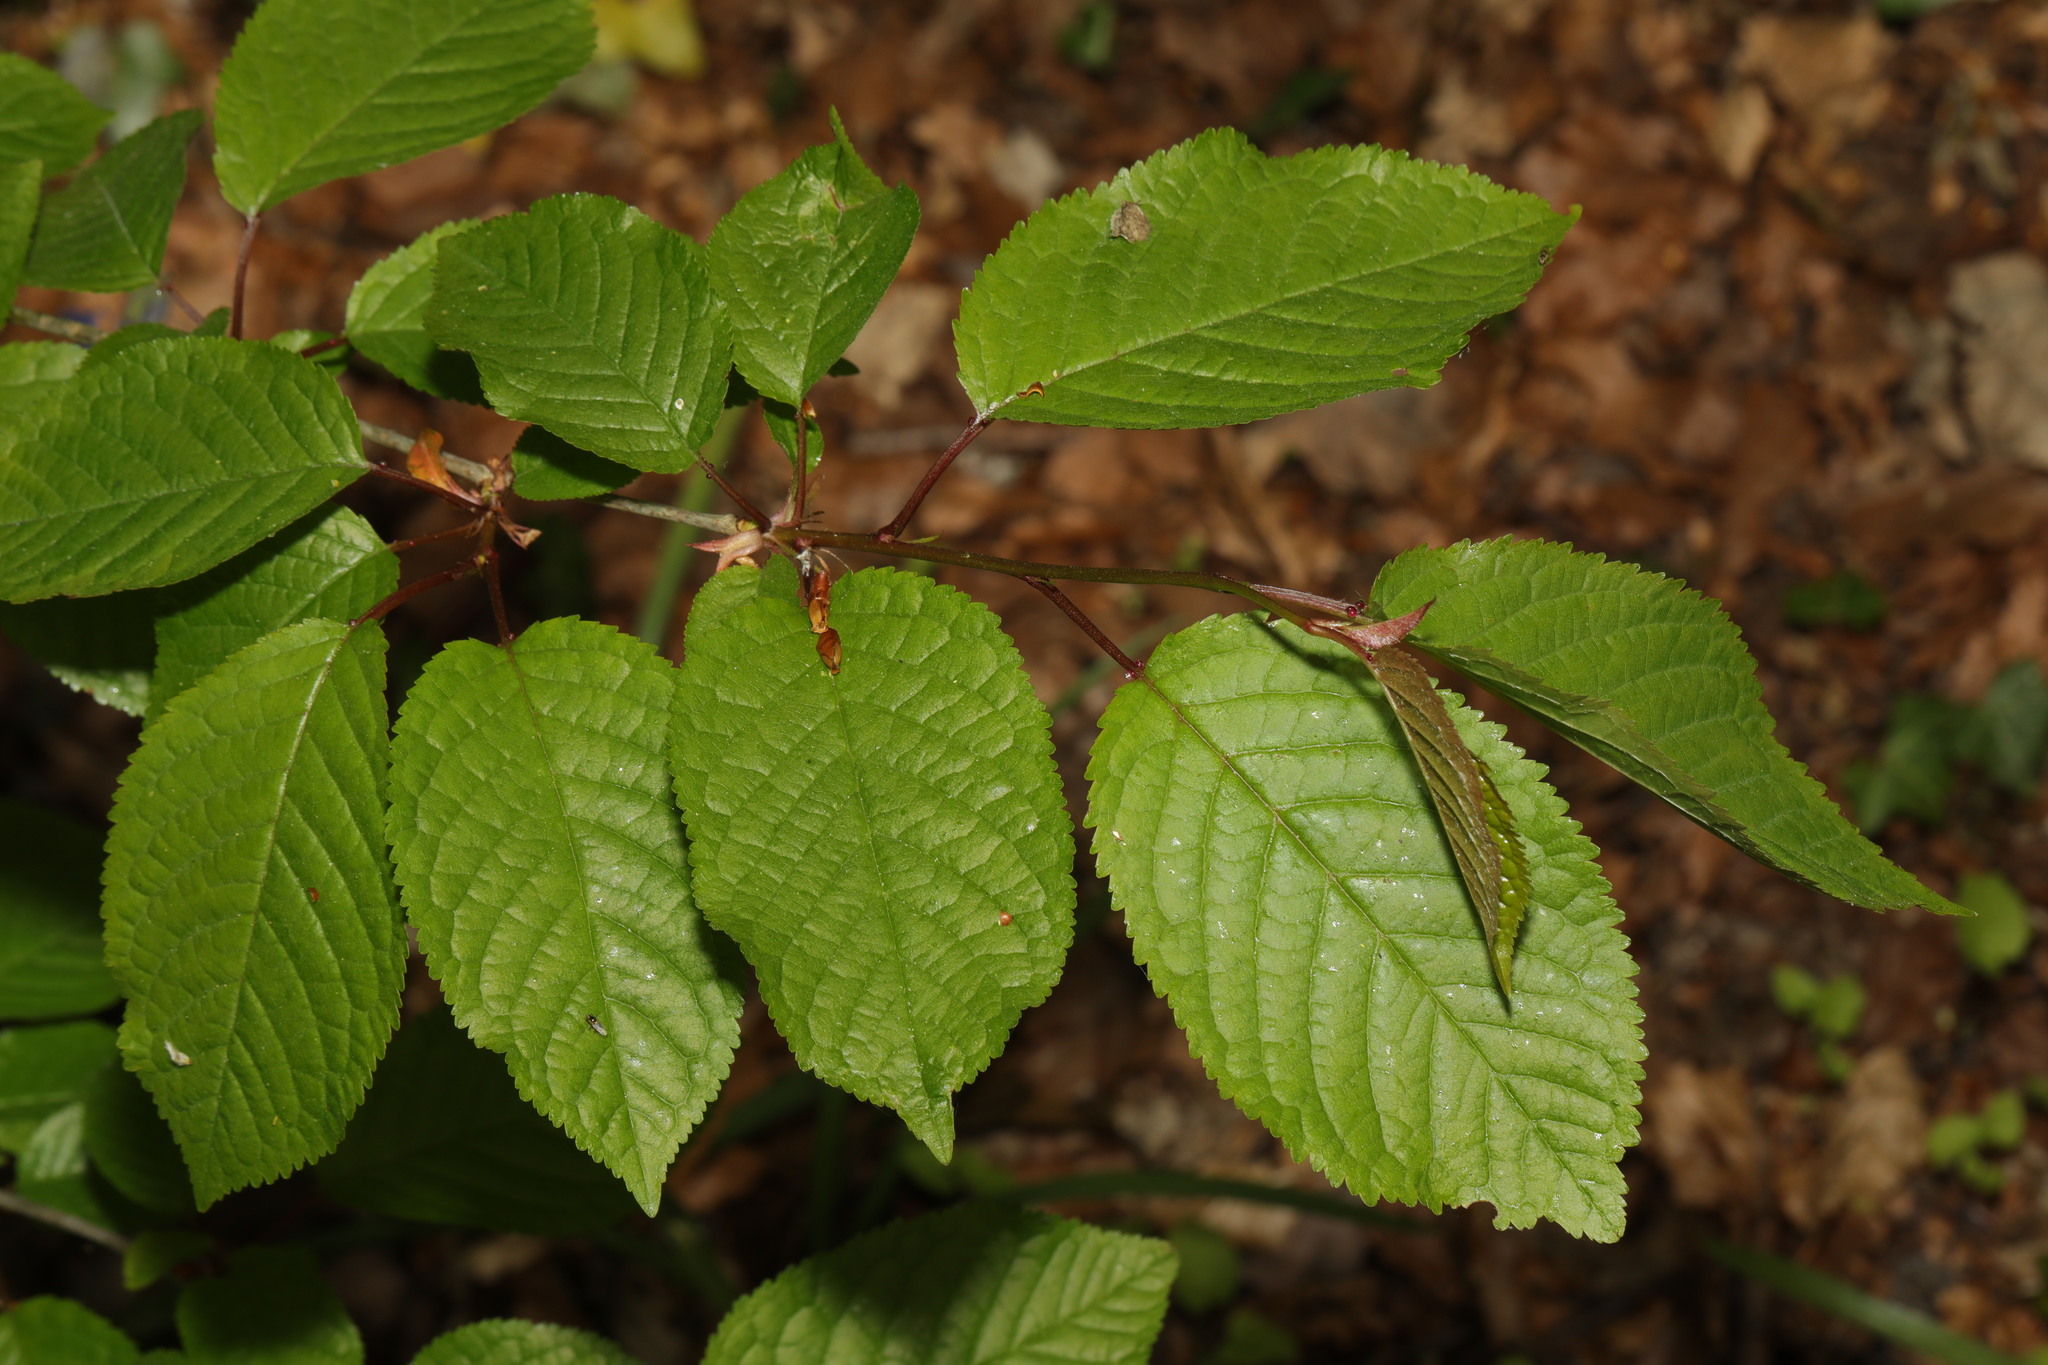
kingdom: Plantae
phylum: Tracheophyta
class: Magnoliopsida
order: Rosales
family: Rosaceae
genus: Prunus
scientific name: Prunus avium
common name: Sweet cherry
